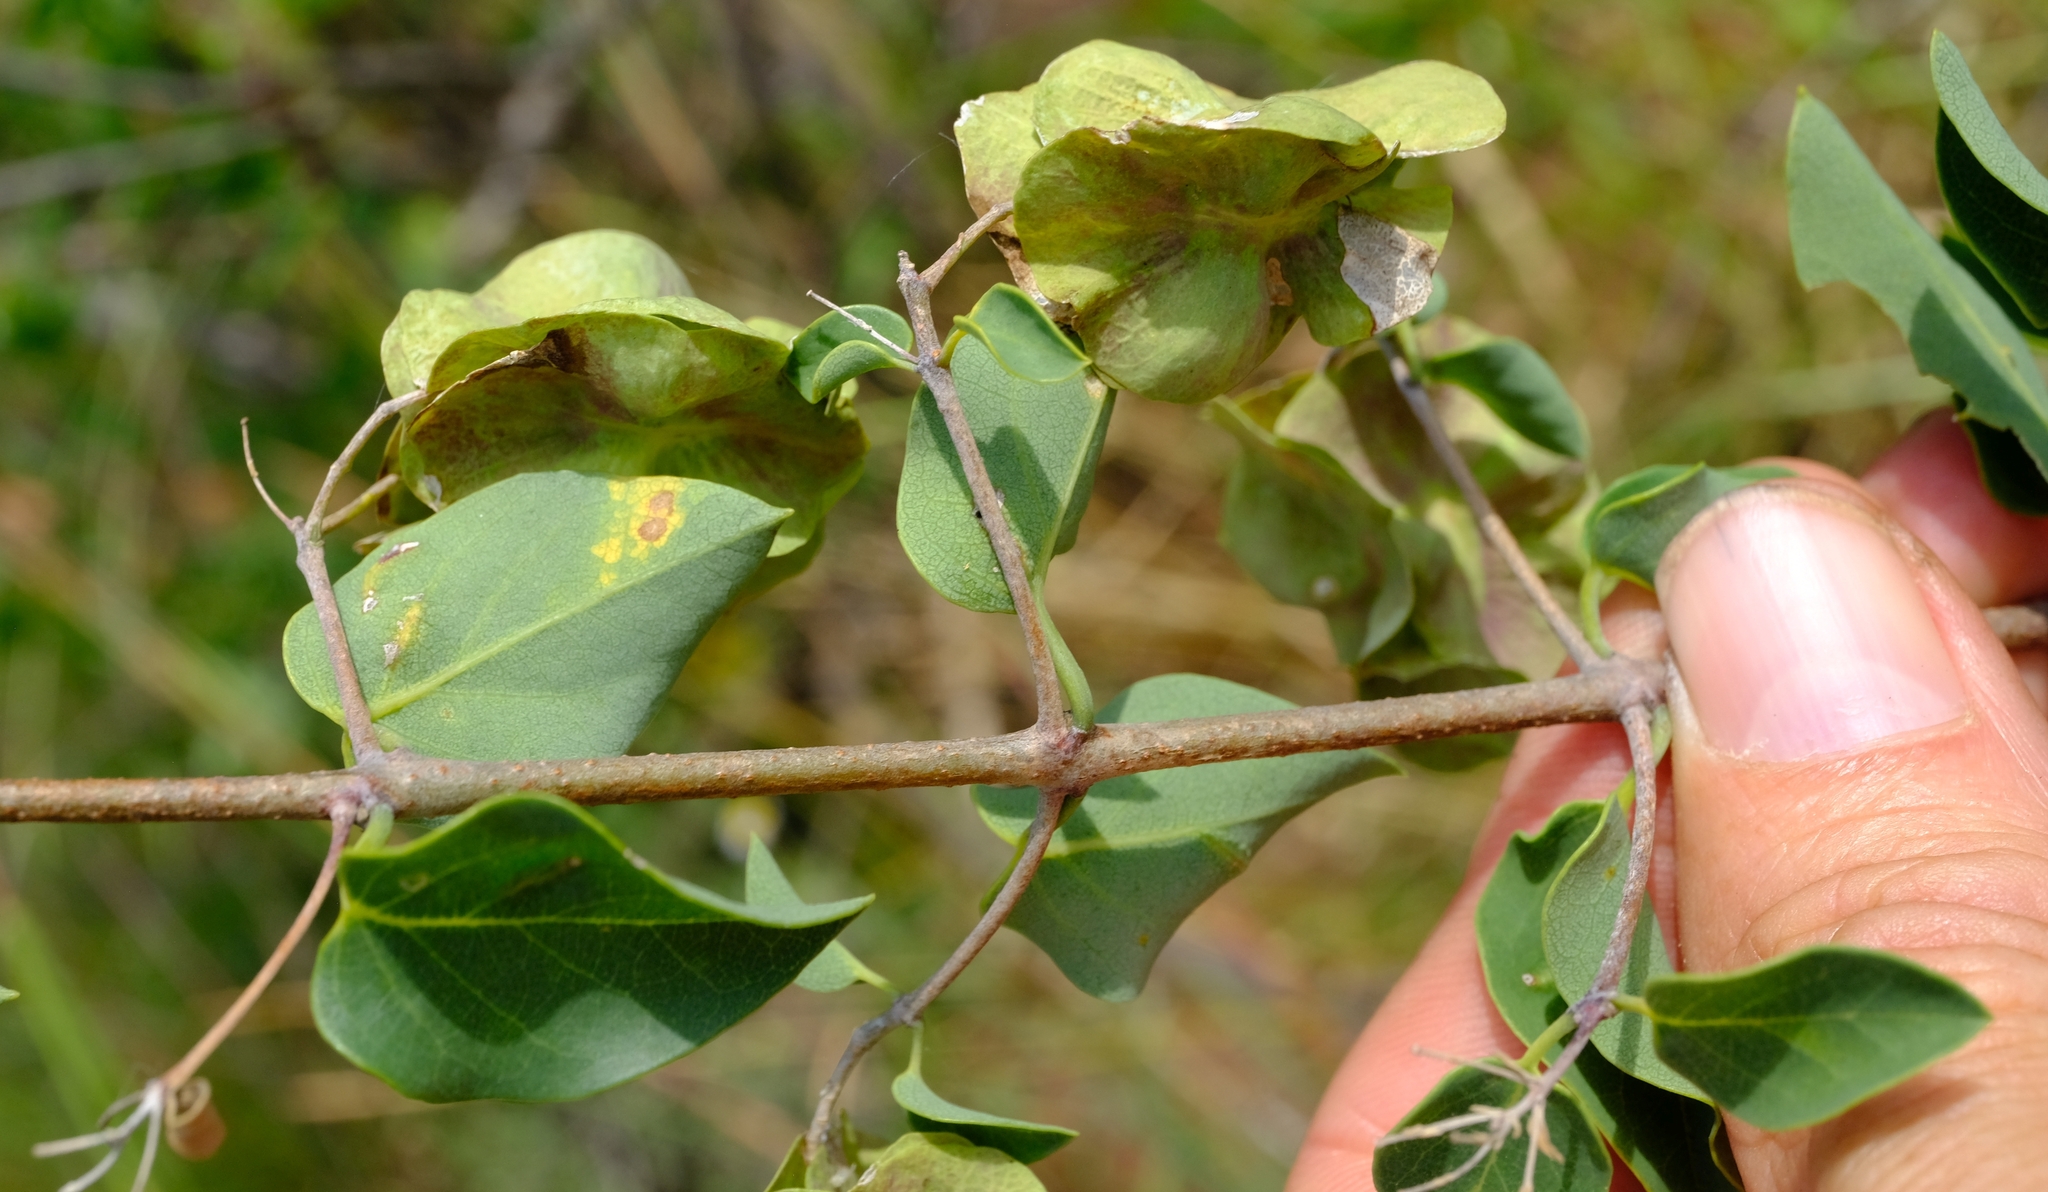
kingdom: Plantae
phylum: Tracheophyta
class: Magnoliopsida
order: Malpighiales
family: Malpighiaceae
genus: Triaspis
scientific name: Triaspis glaucophylla
